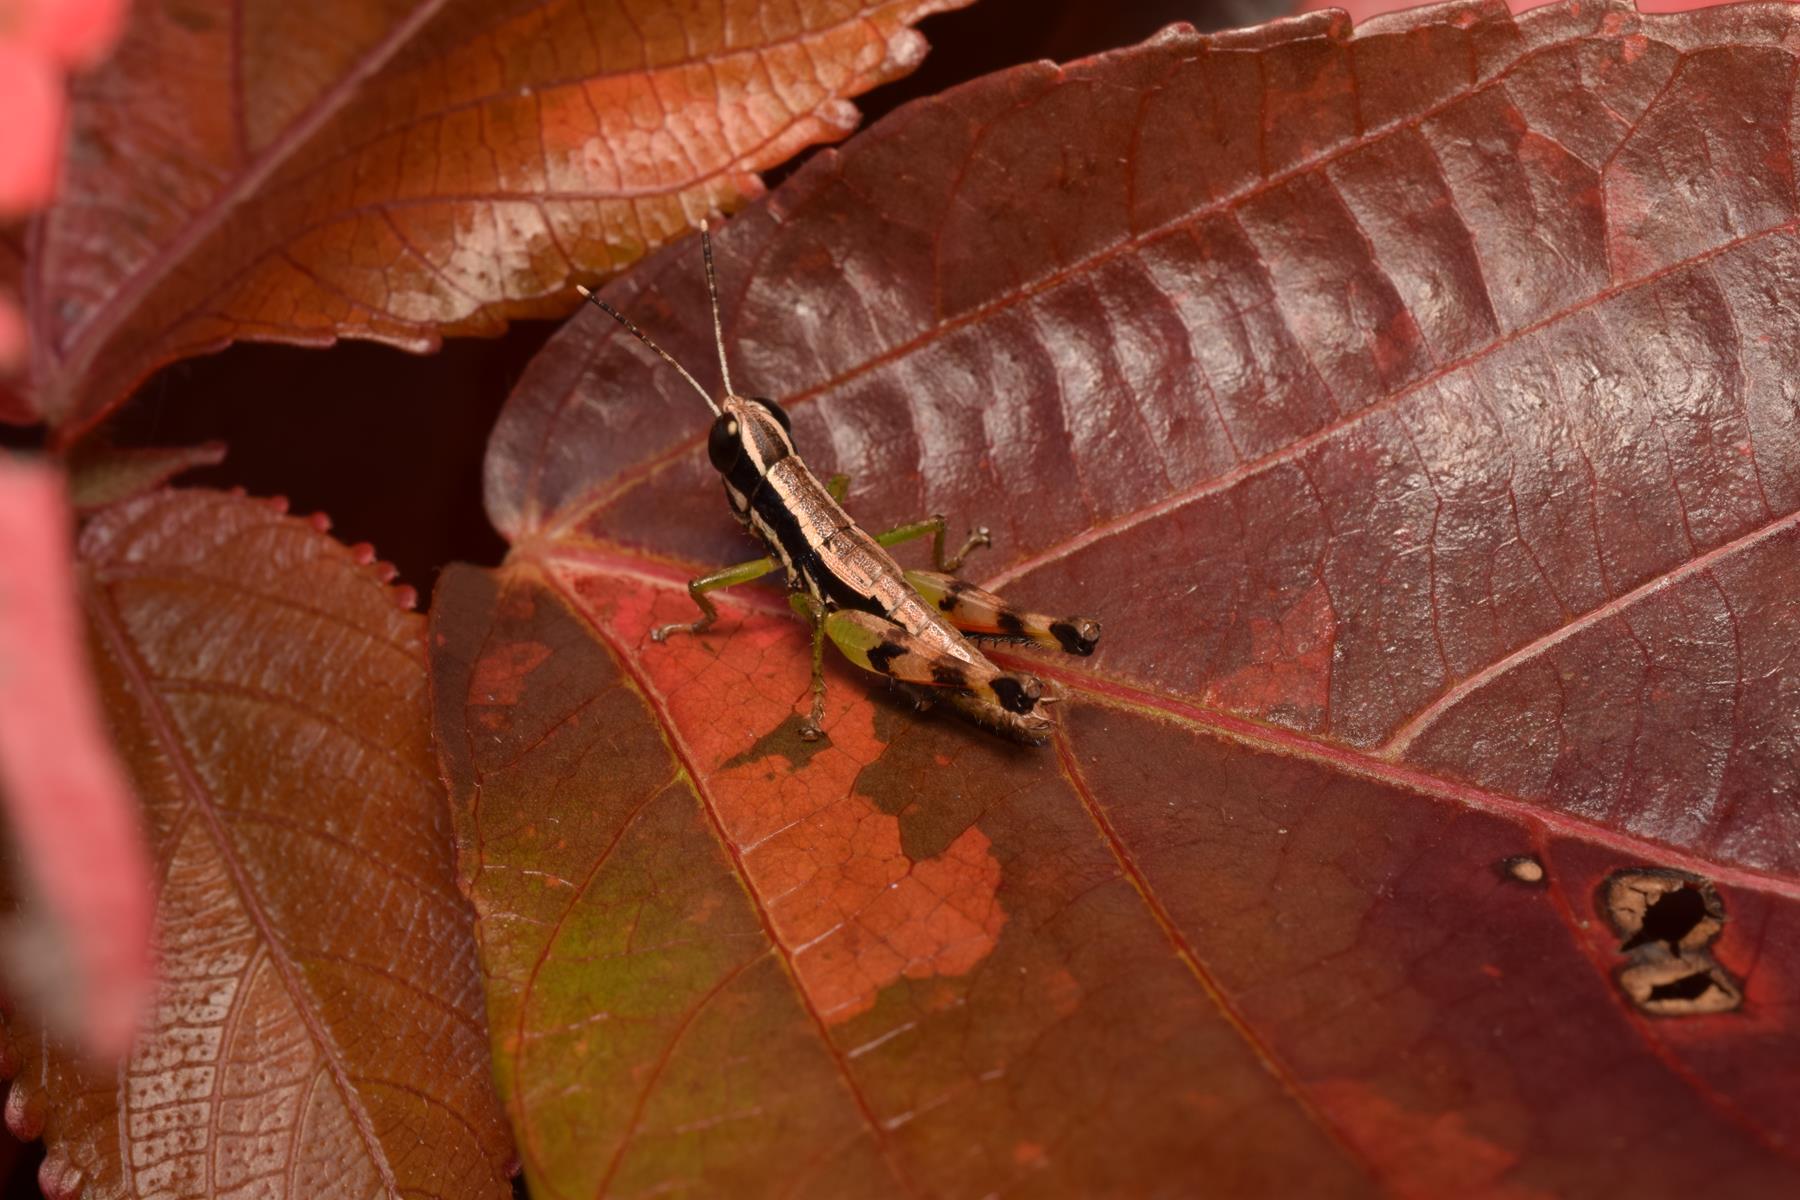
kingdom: Animalia
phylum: Arthropoda
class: Insecta
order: Orthoptera
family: Acrididae
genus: Chitaura
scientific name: Chitaura indica
